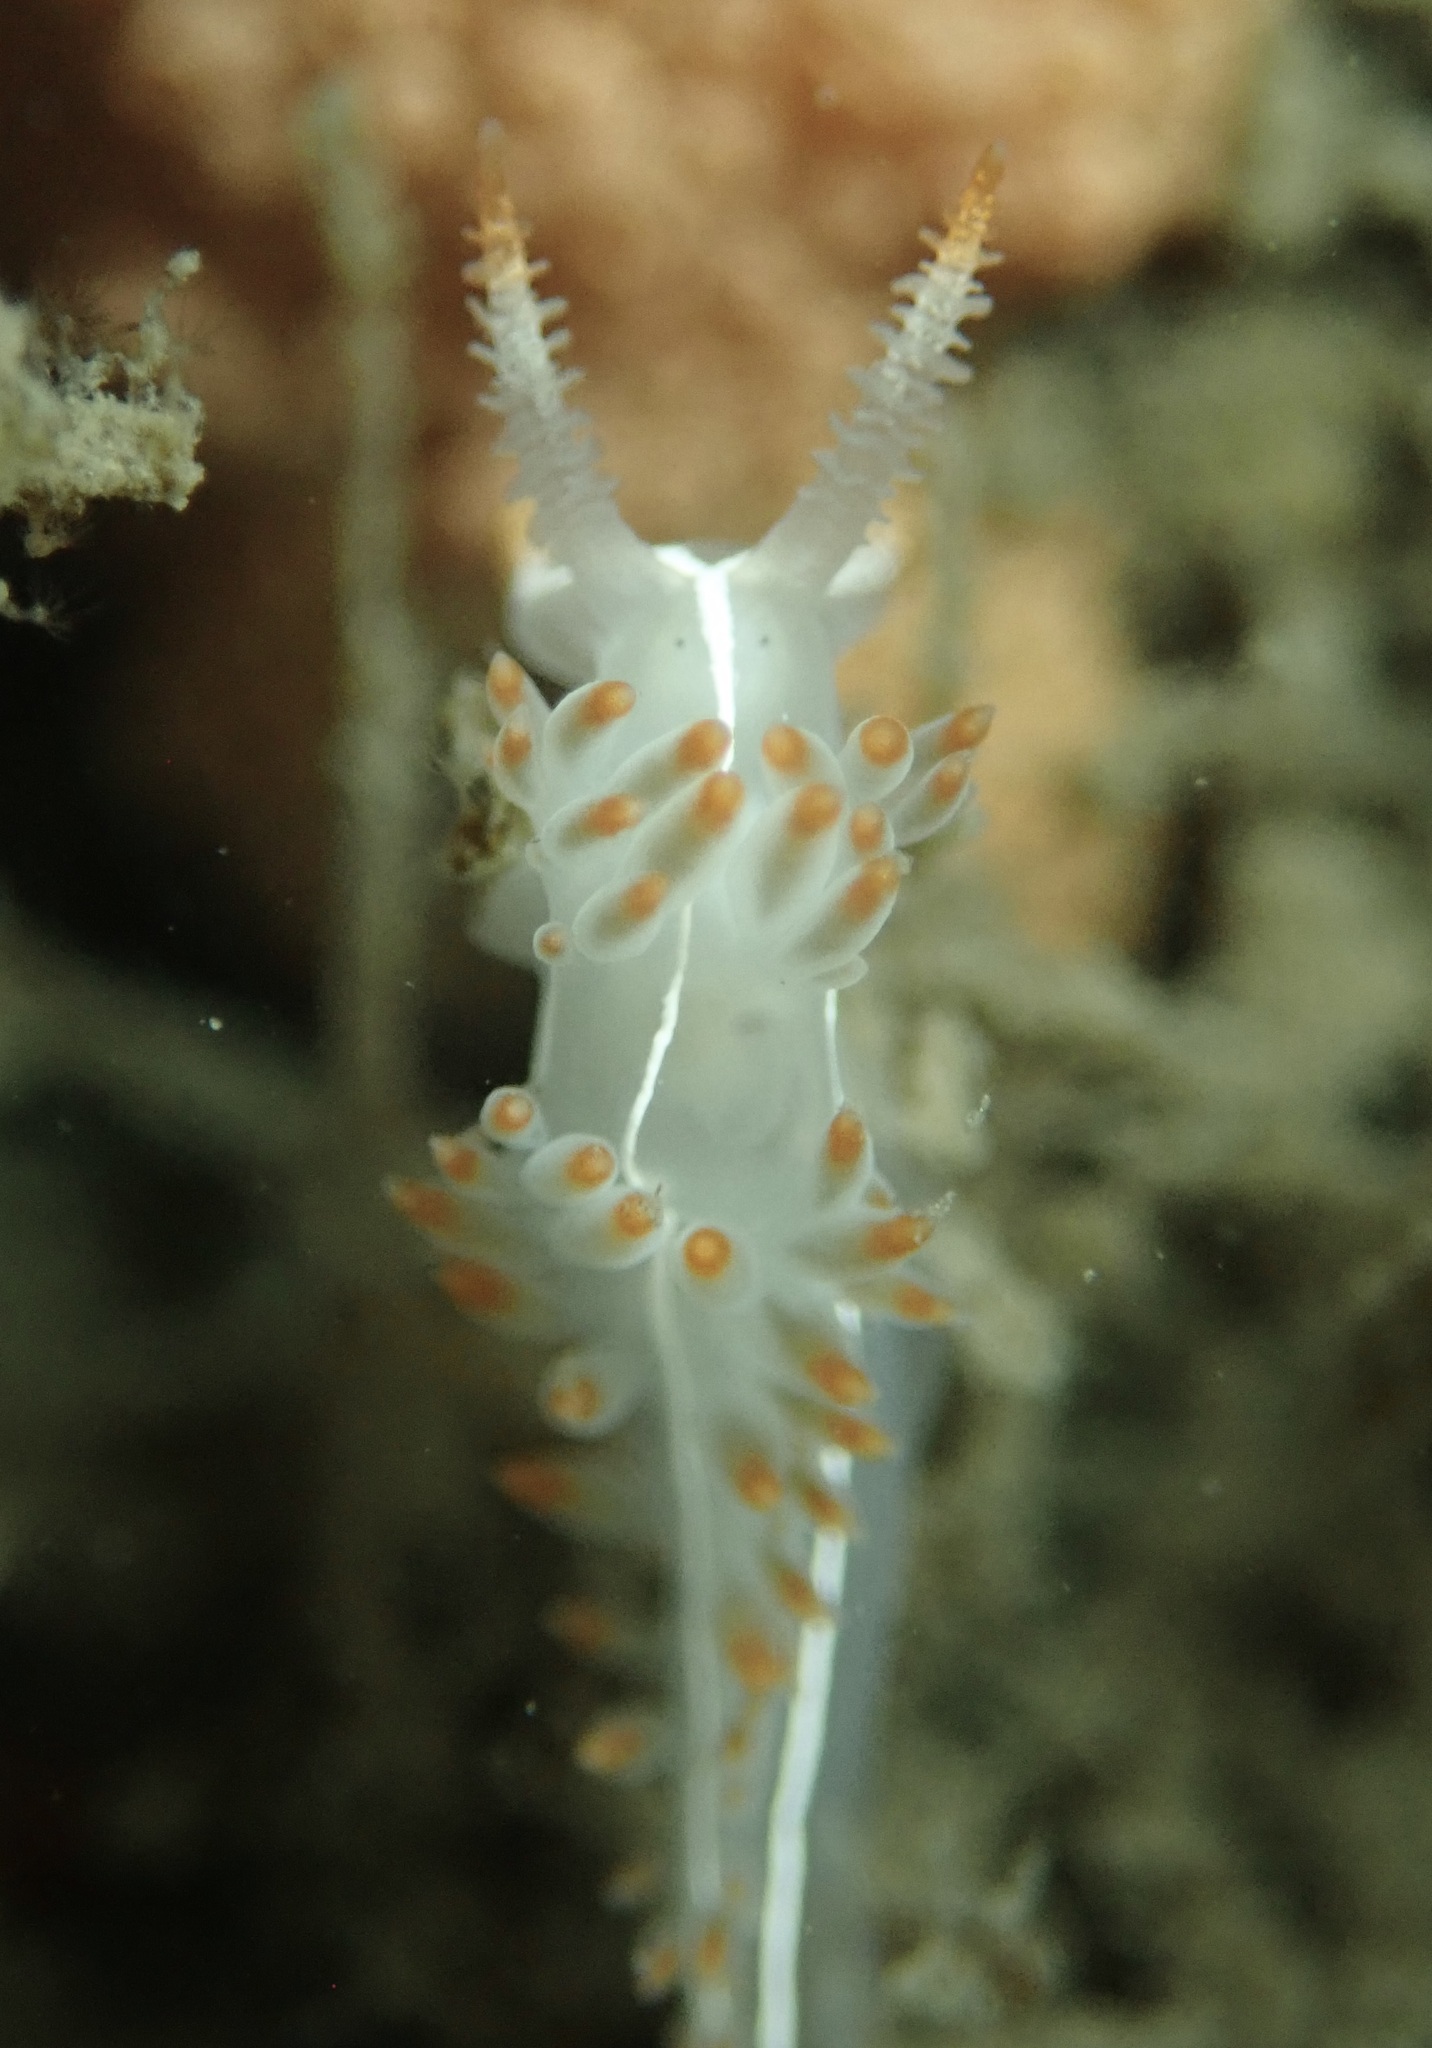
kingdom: Animalia
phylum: Mollusca
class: Gastropoda
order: Nudibranchia
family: Coryphellidae
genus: Coryphella
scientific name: Coryphella trilineata
